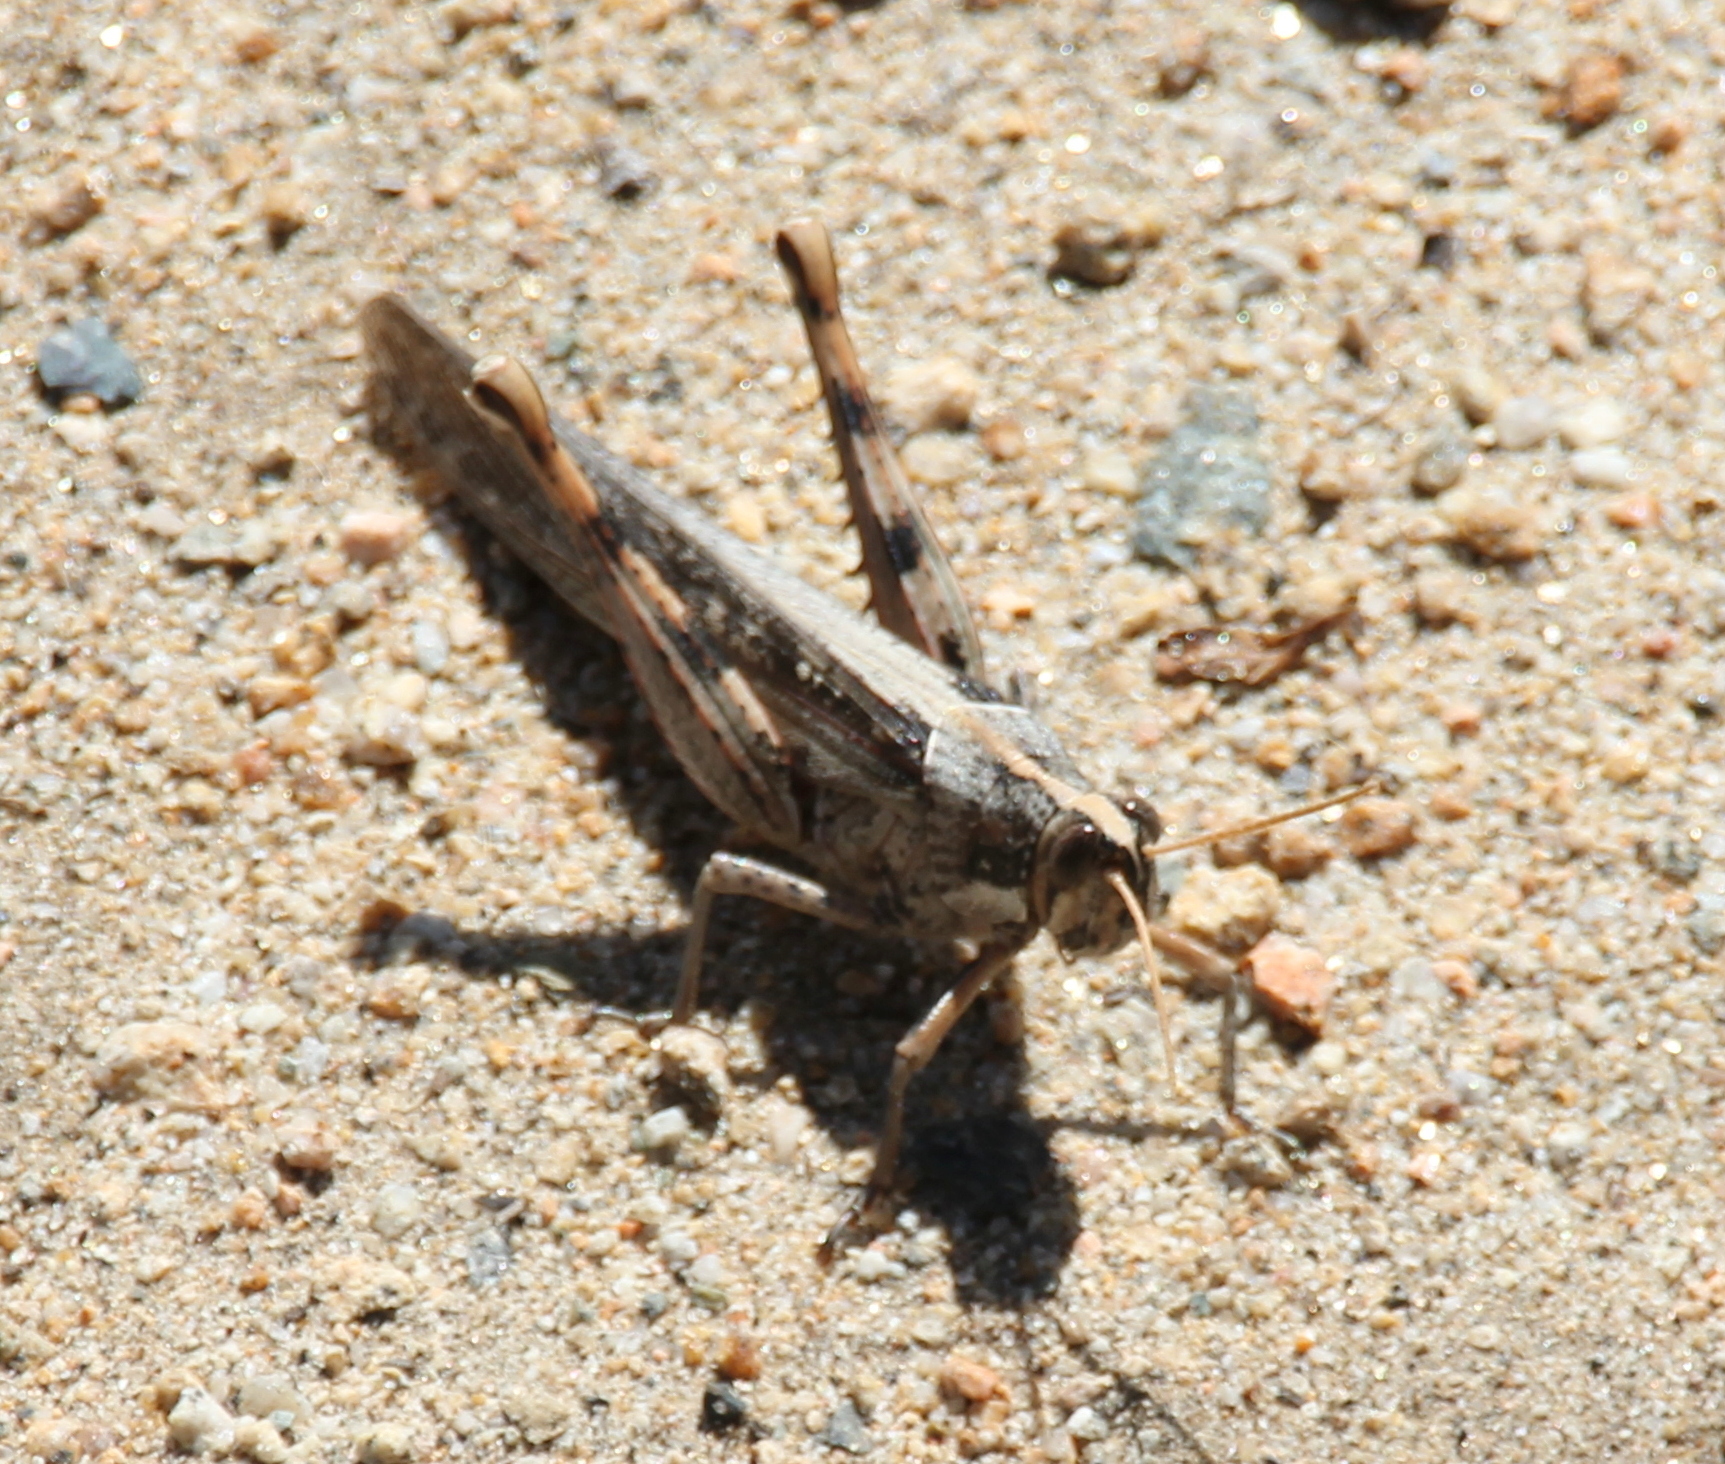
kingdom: Animalia
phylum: Arthropoda
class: Insecta
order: Orthoptera
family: Acrididae
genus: Schistocerca
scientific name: Schistocerca nitens
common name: Vagrant grasshopper
